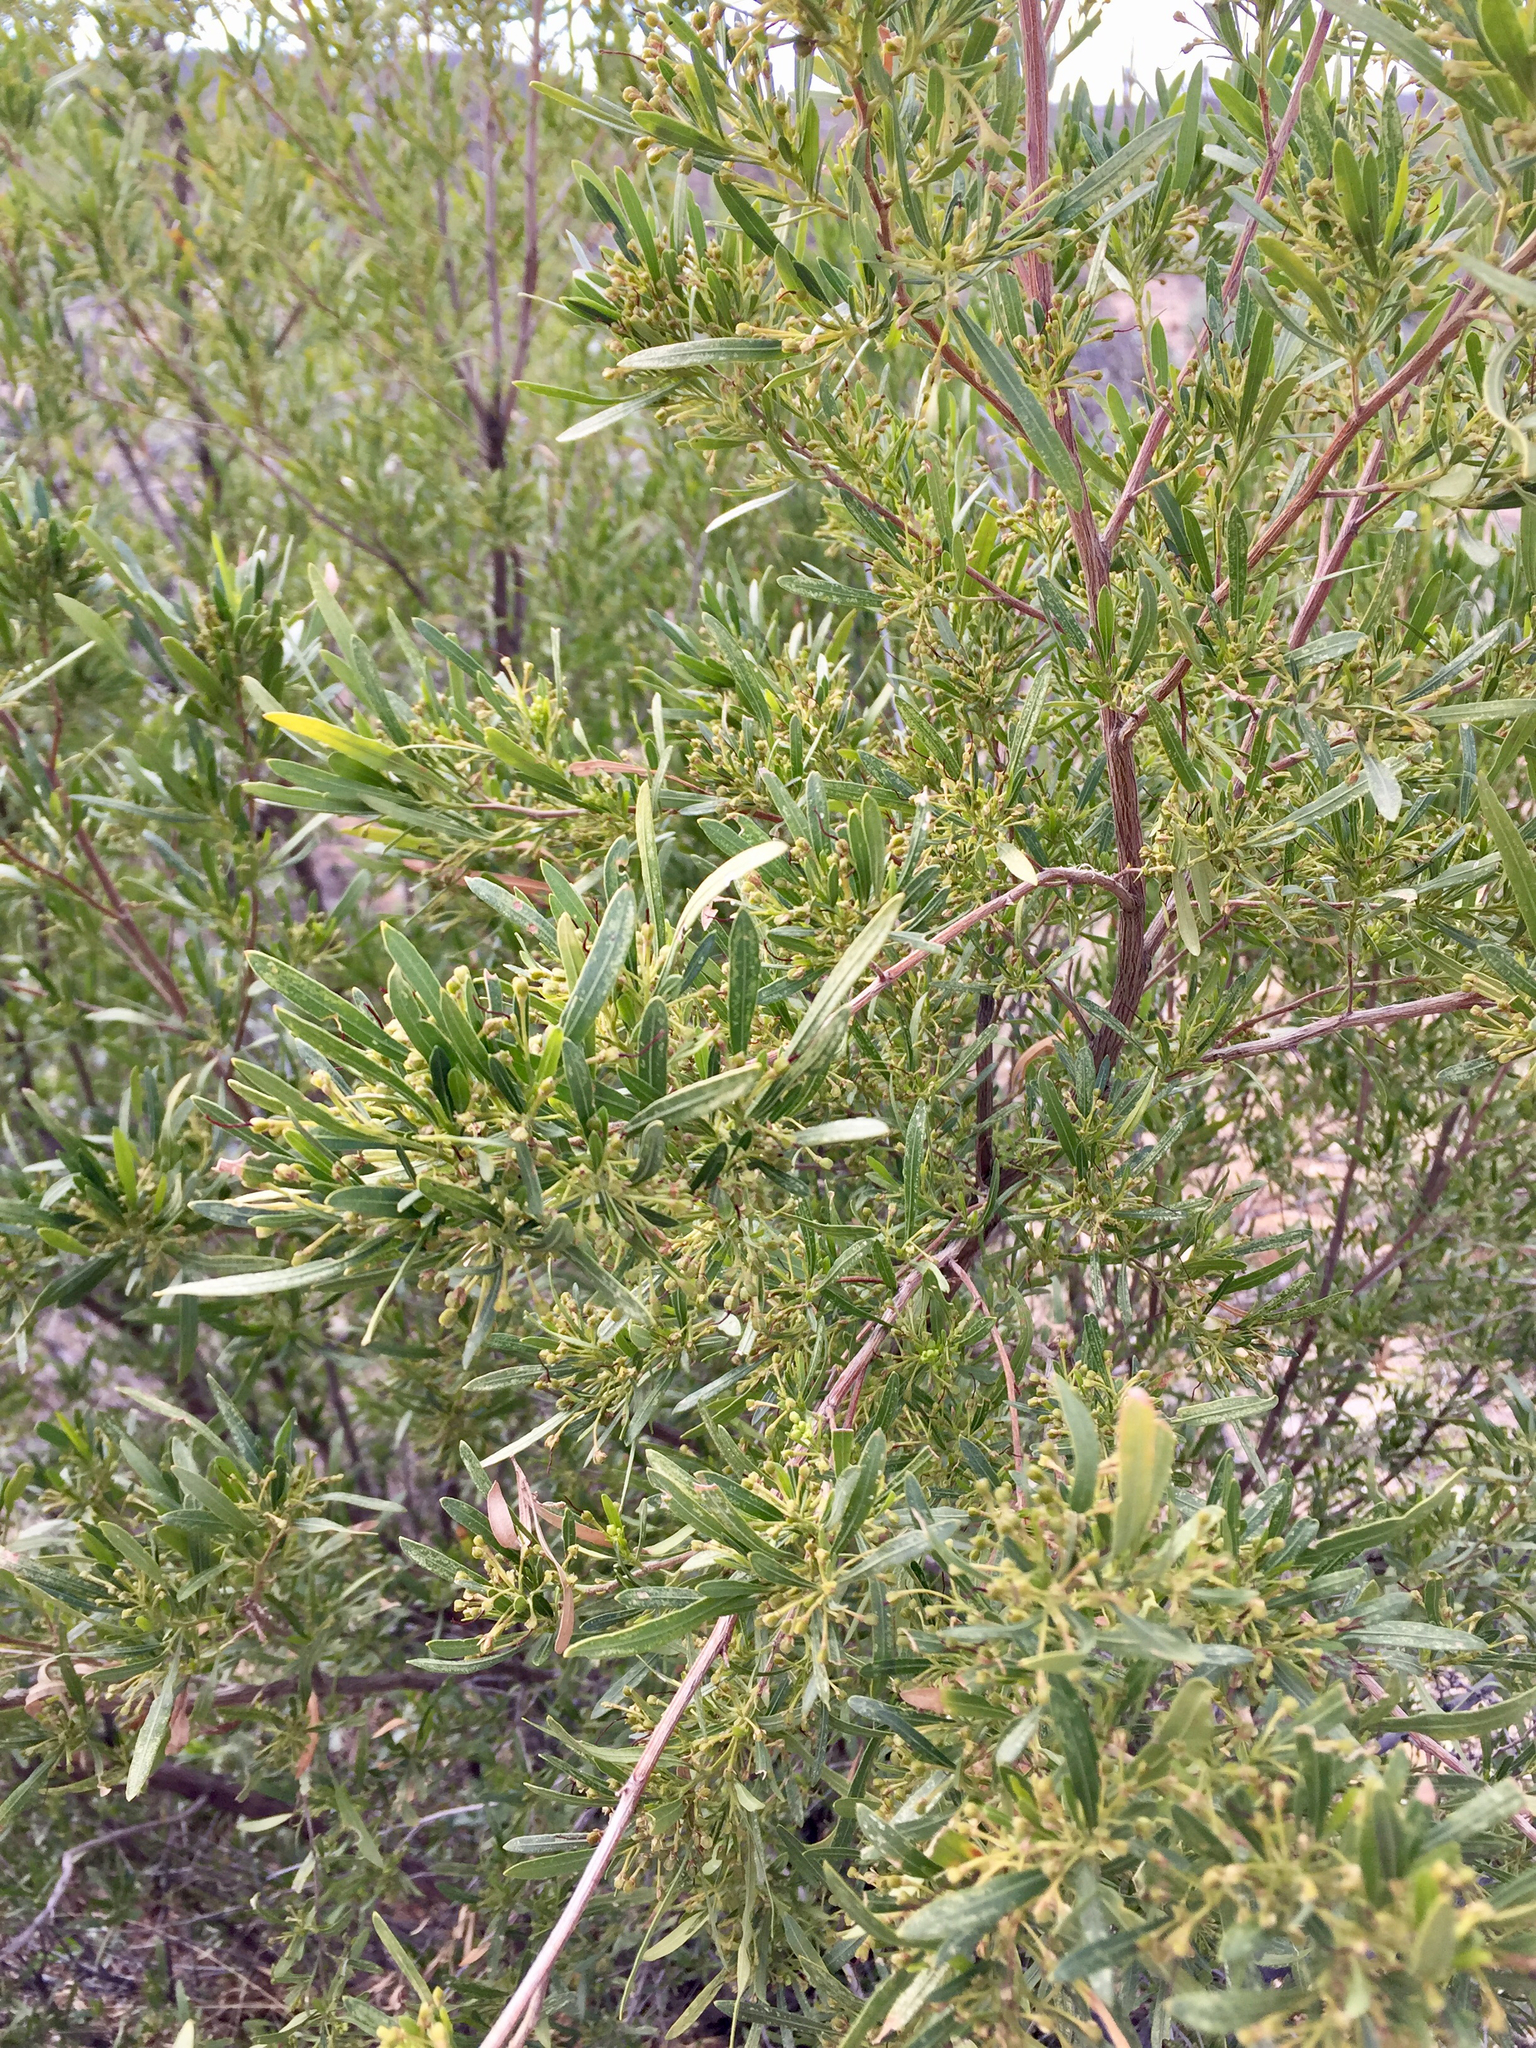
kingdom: Plantae
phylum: Tracheophyta
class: Magnoliopsida
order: Sapindales
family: Sapindaceae
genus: Dodonaea
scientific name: Dodonaea viscosa
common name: Hopbush
